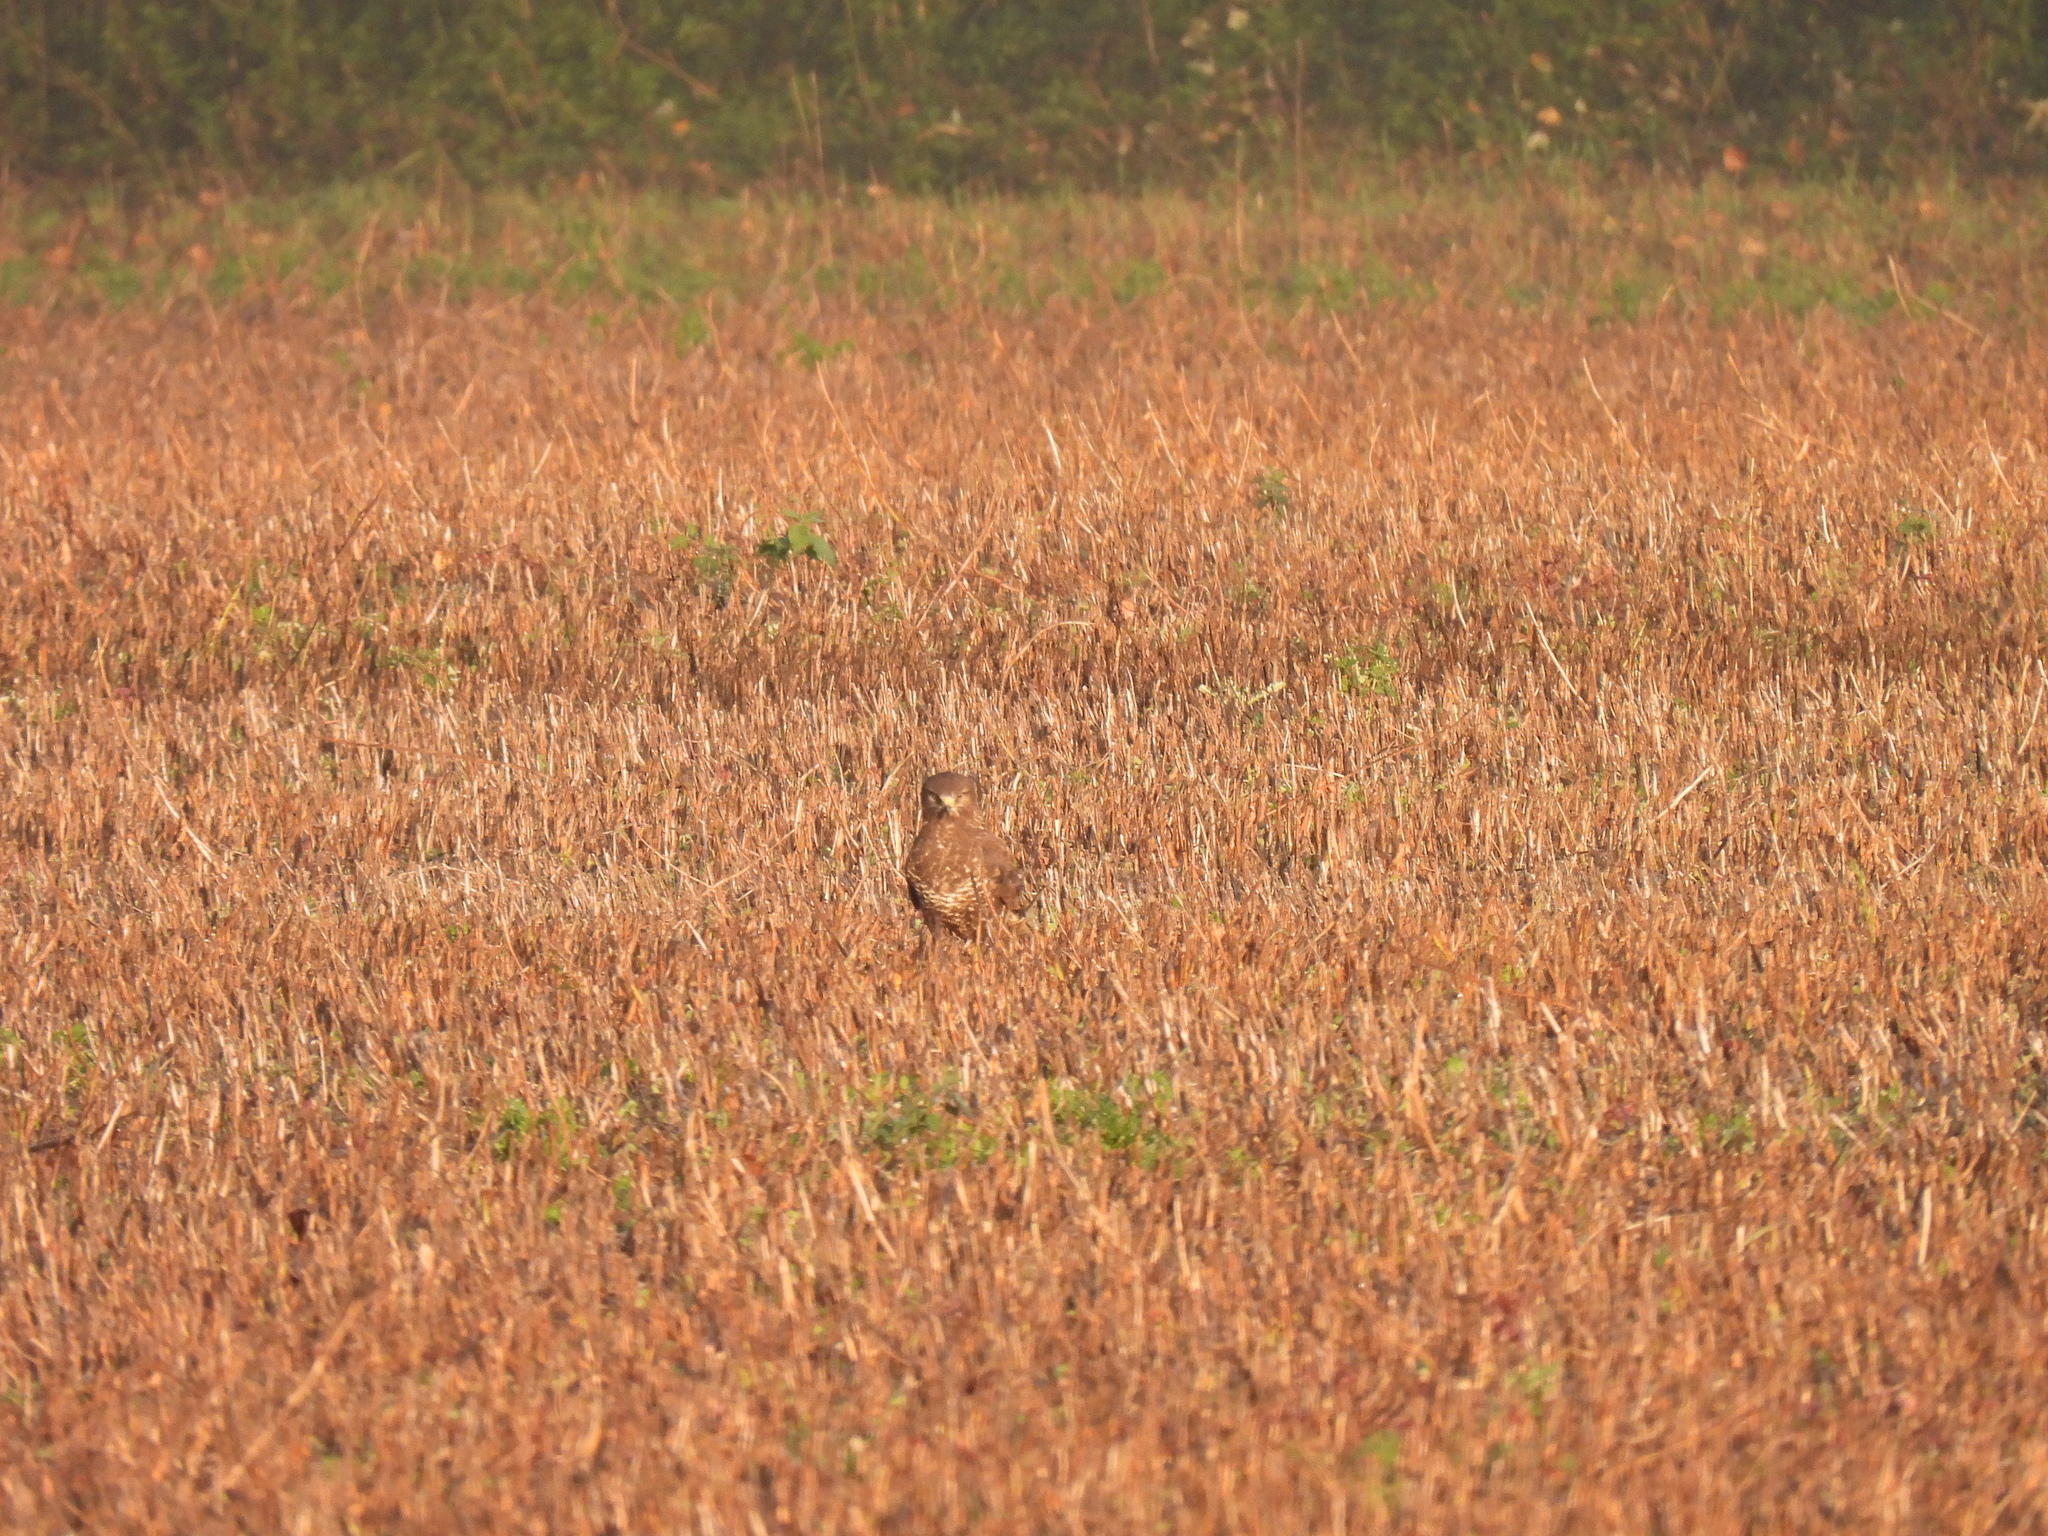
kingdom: Animalia
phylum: Chordata
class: Aves
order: Accipitriformes
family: Accipitridae
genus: Buteo
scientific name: Buteo buteo
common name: Common buzzard
